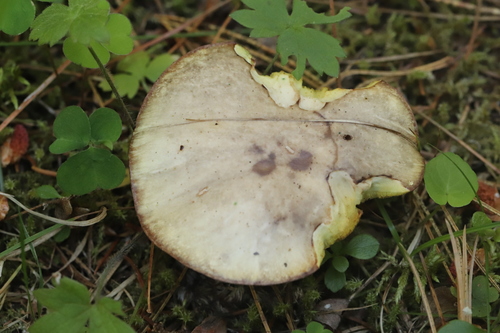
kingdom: Fungi
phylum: Basidiomycota
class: Agaricomycetes
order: Boletales
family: Suillaceae
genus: Suillus
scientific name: Suillus placidus
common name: Slippery white bolete
